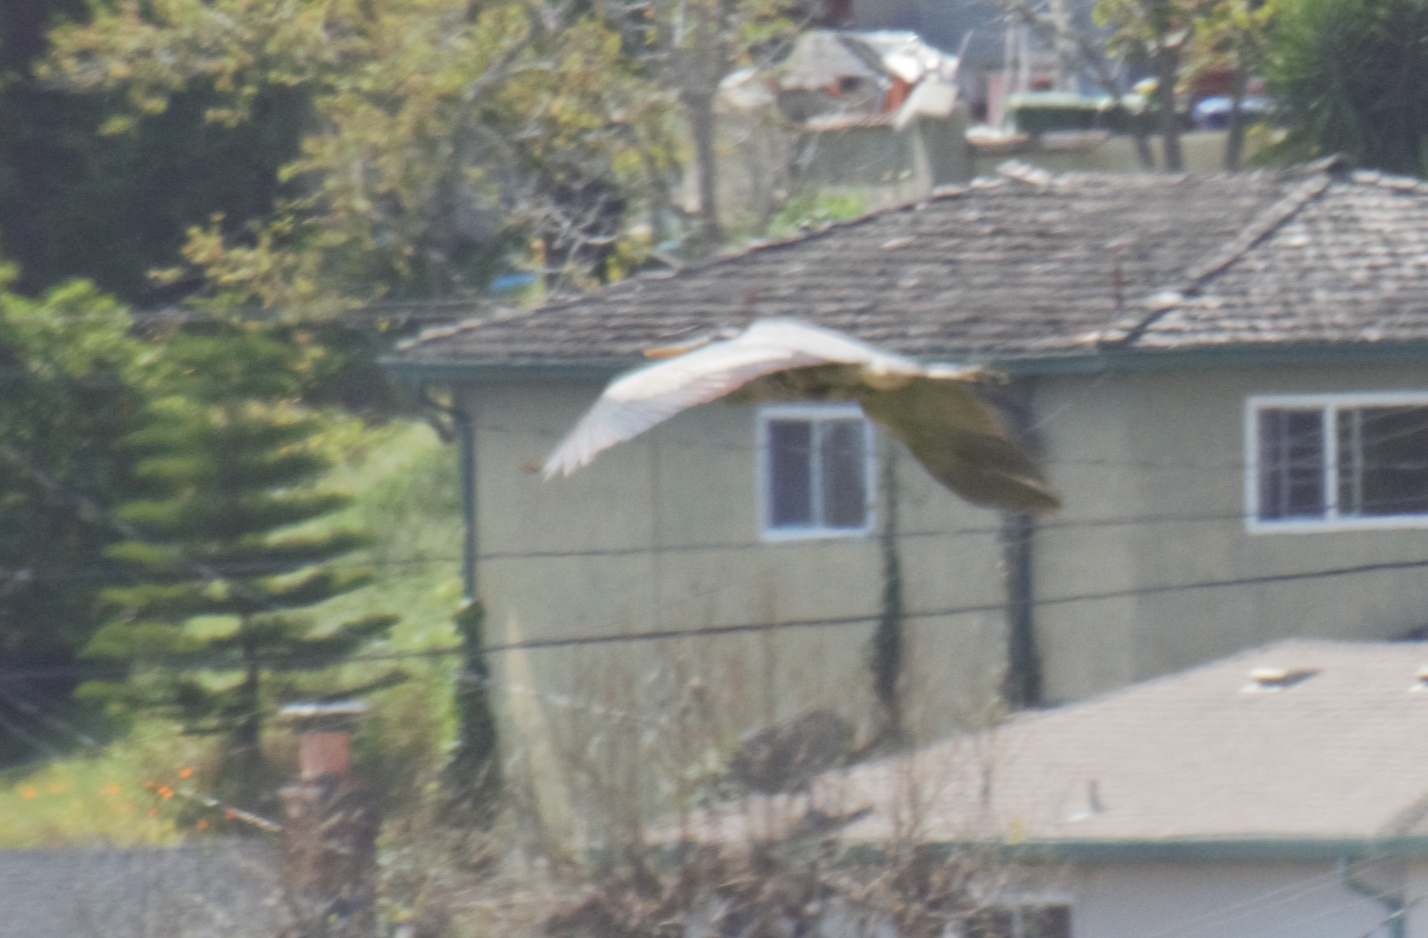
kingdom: Animalia
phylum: Chordata
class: Aves
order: Pelecaniformes
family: Ardeidae
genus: Ardea
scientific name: Ardea herodias
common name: Great blue heron
